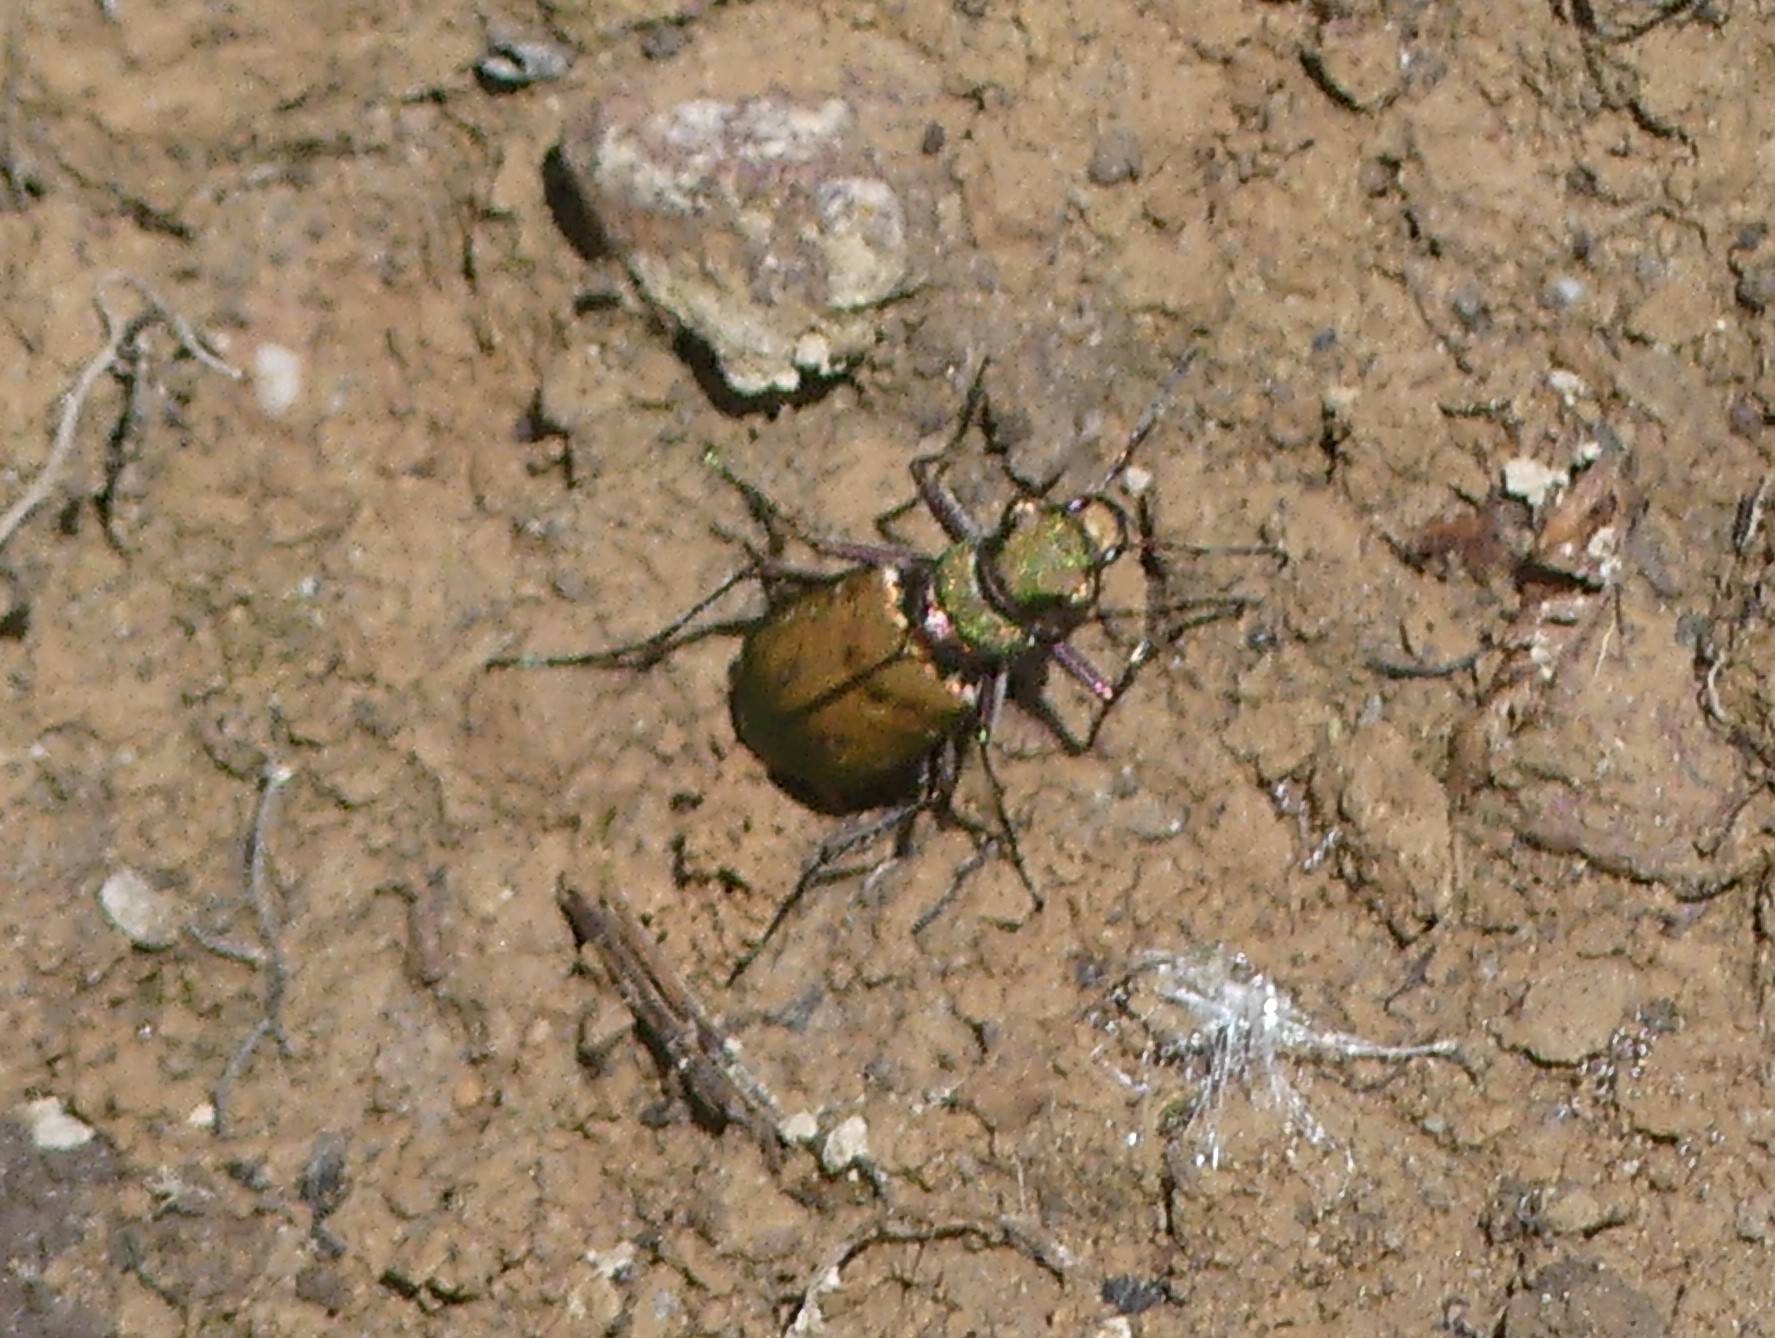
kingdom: Animalia
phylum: Arthropoda
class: Insecta
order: Coleoptera
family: Carabidae
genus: Cicindela
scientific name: Cicindela campestris
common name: Common tiger beetle
